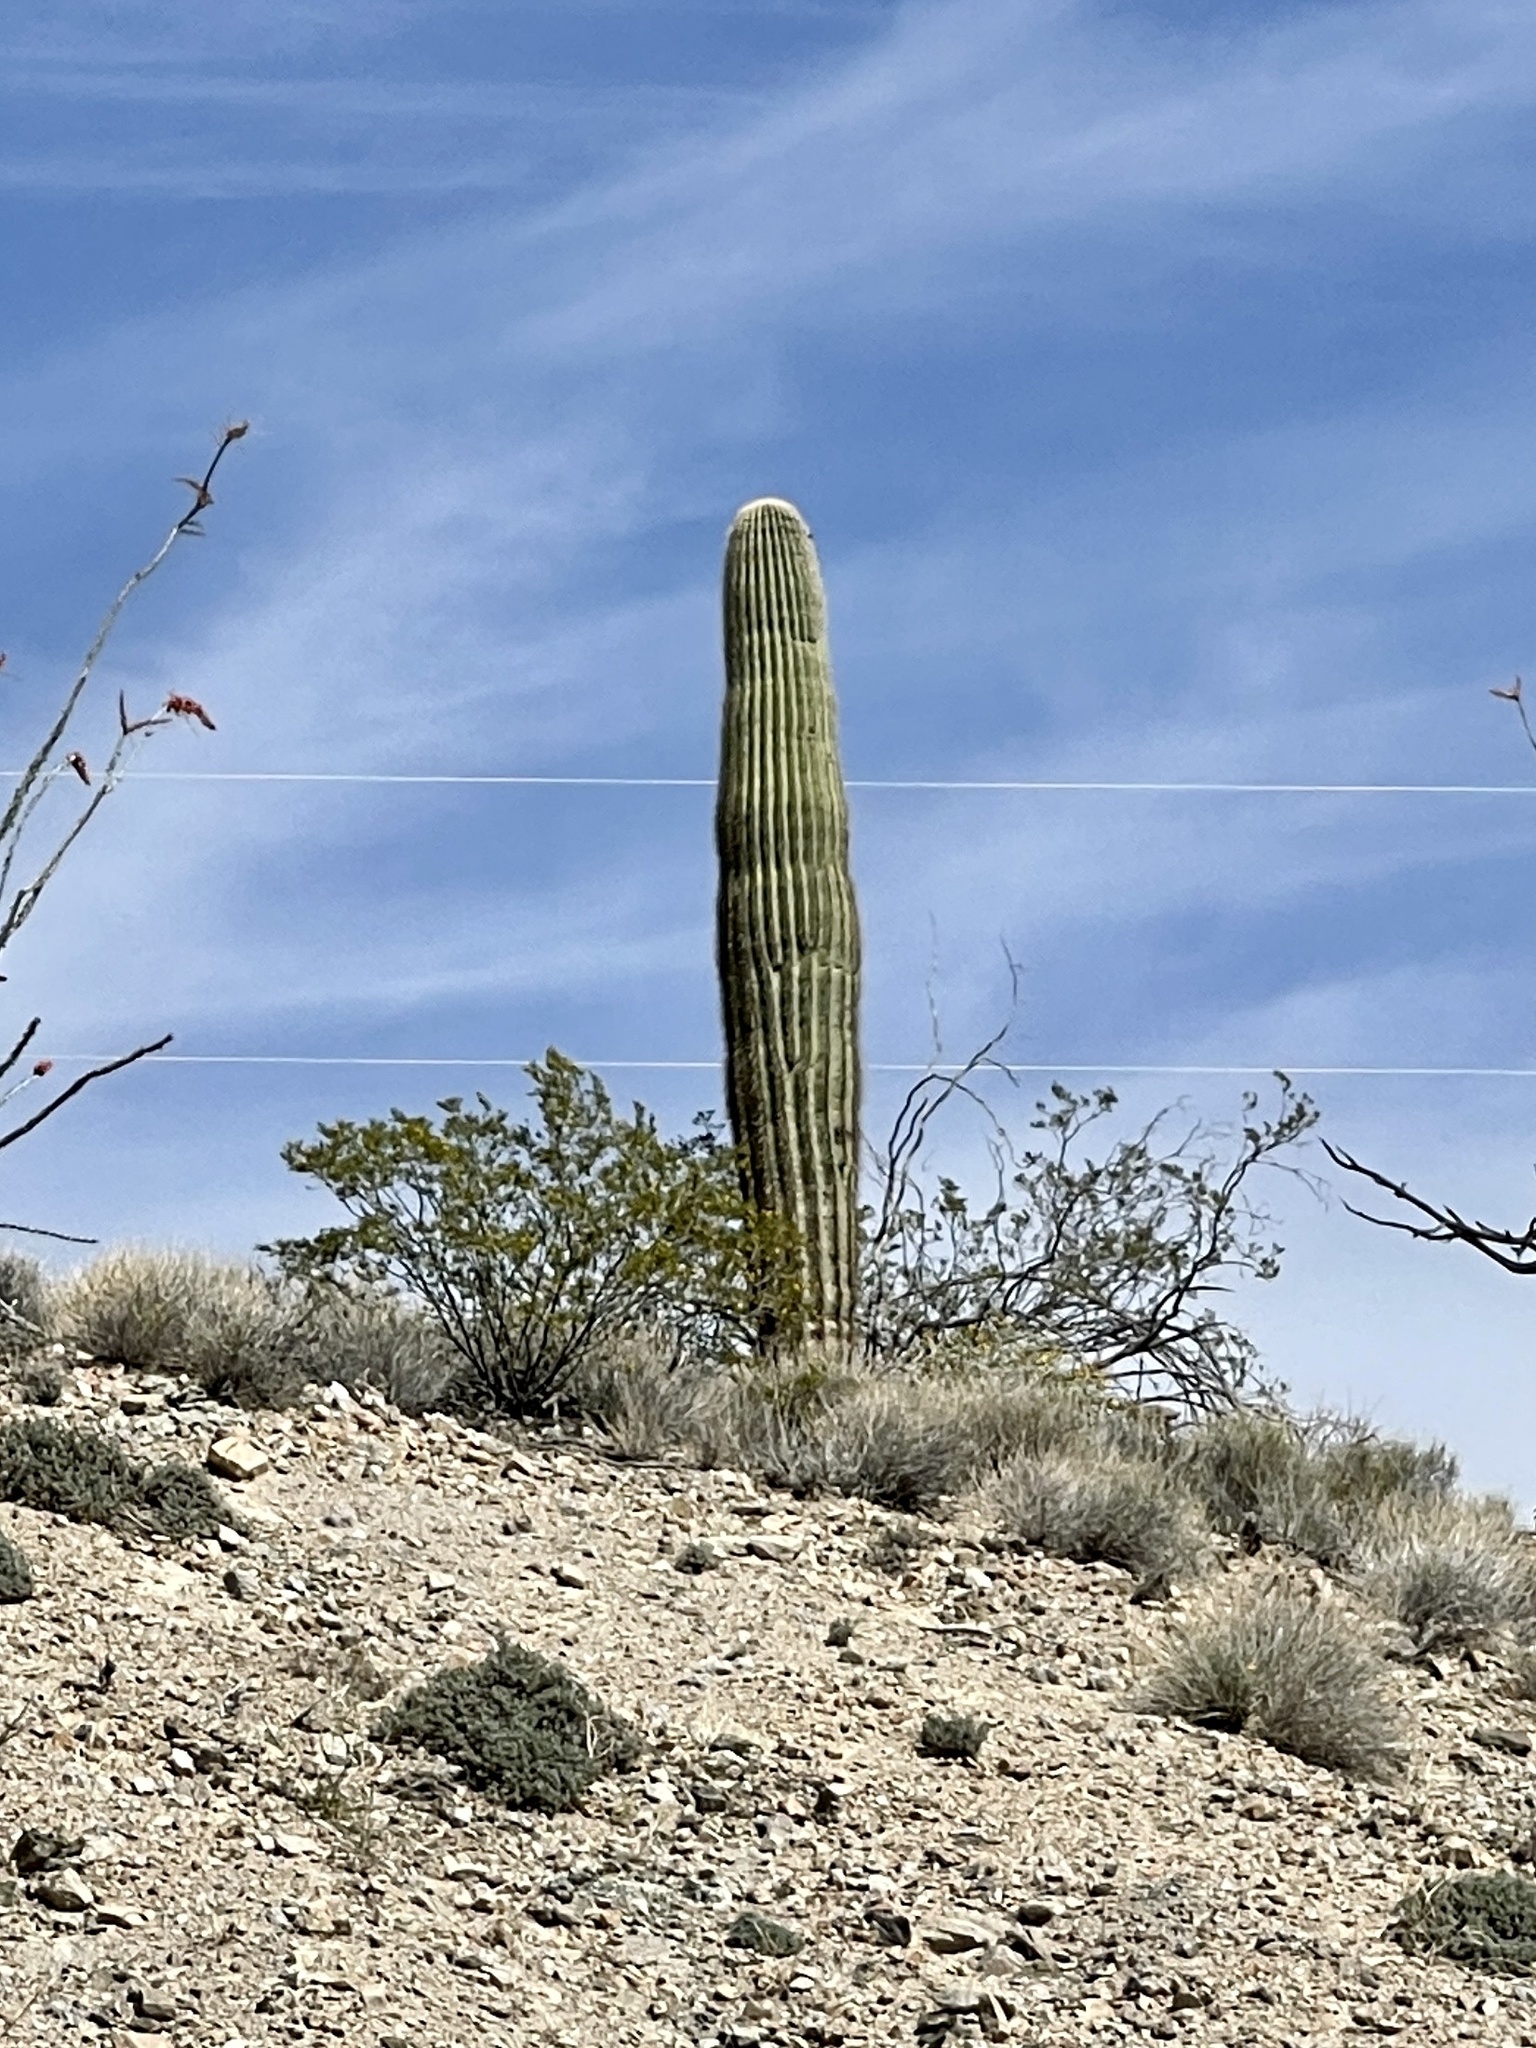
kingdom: Plantae
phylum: Tracheophyta
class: Magnoliopsida
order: Caryophyllales
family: Cactaceae
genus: Carnegiea
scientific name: Carnegiea gigantea
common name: Saguaro
